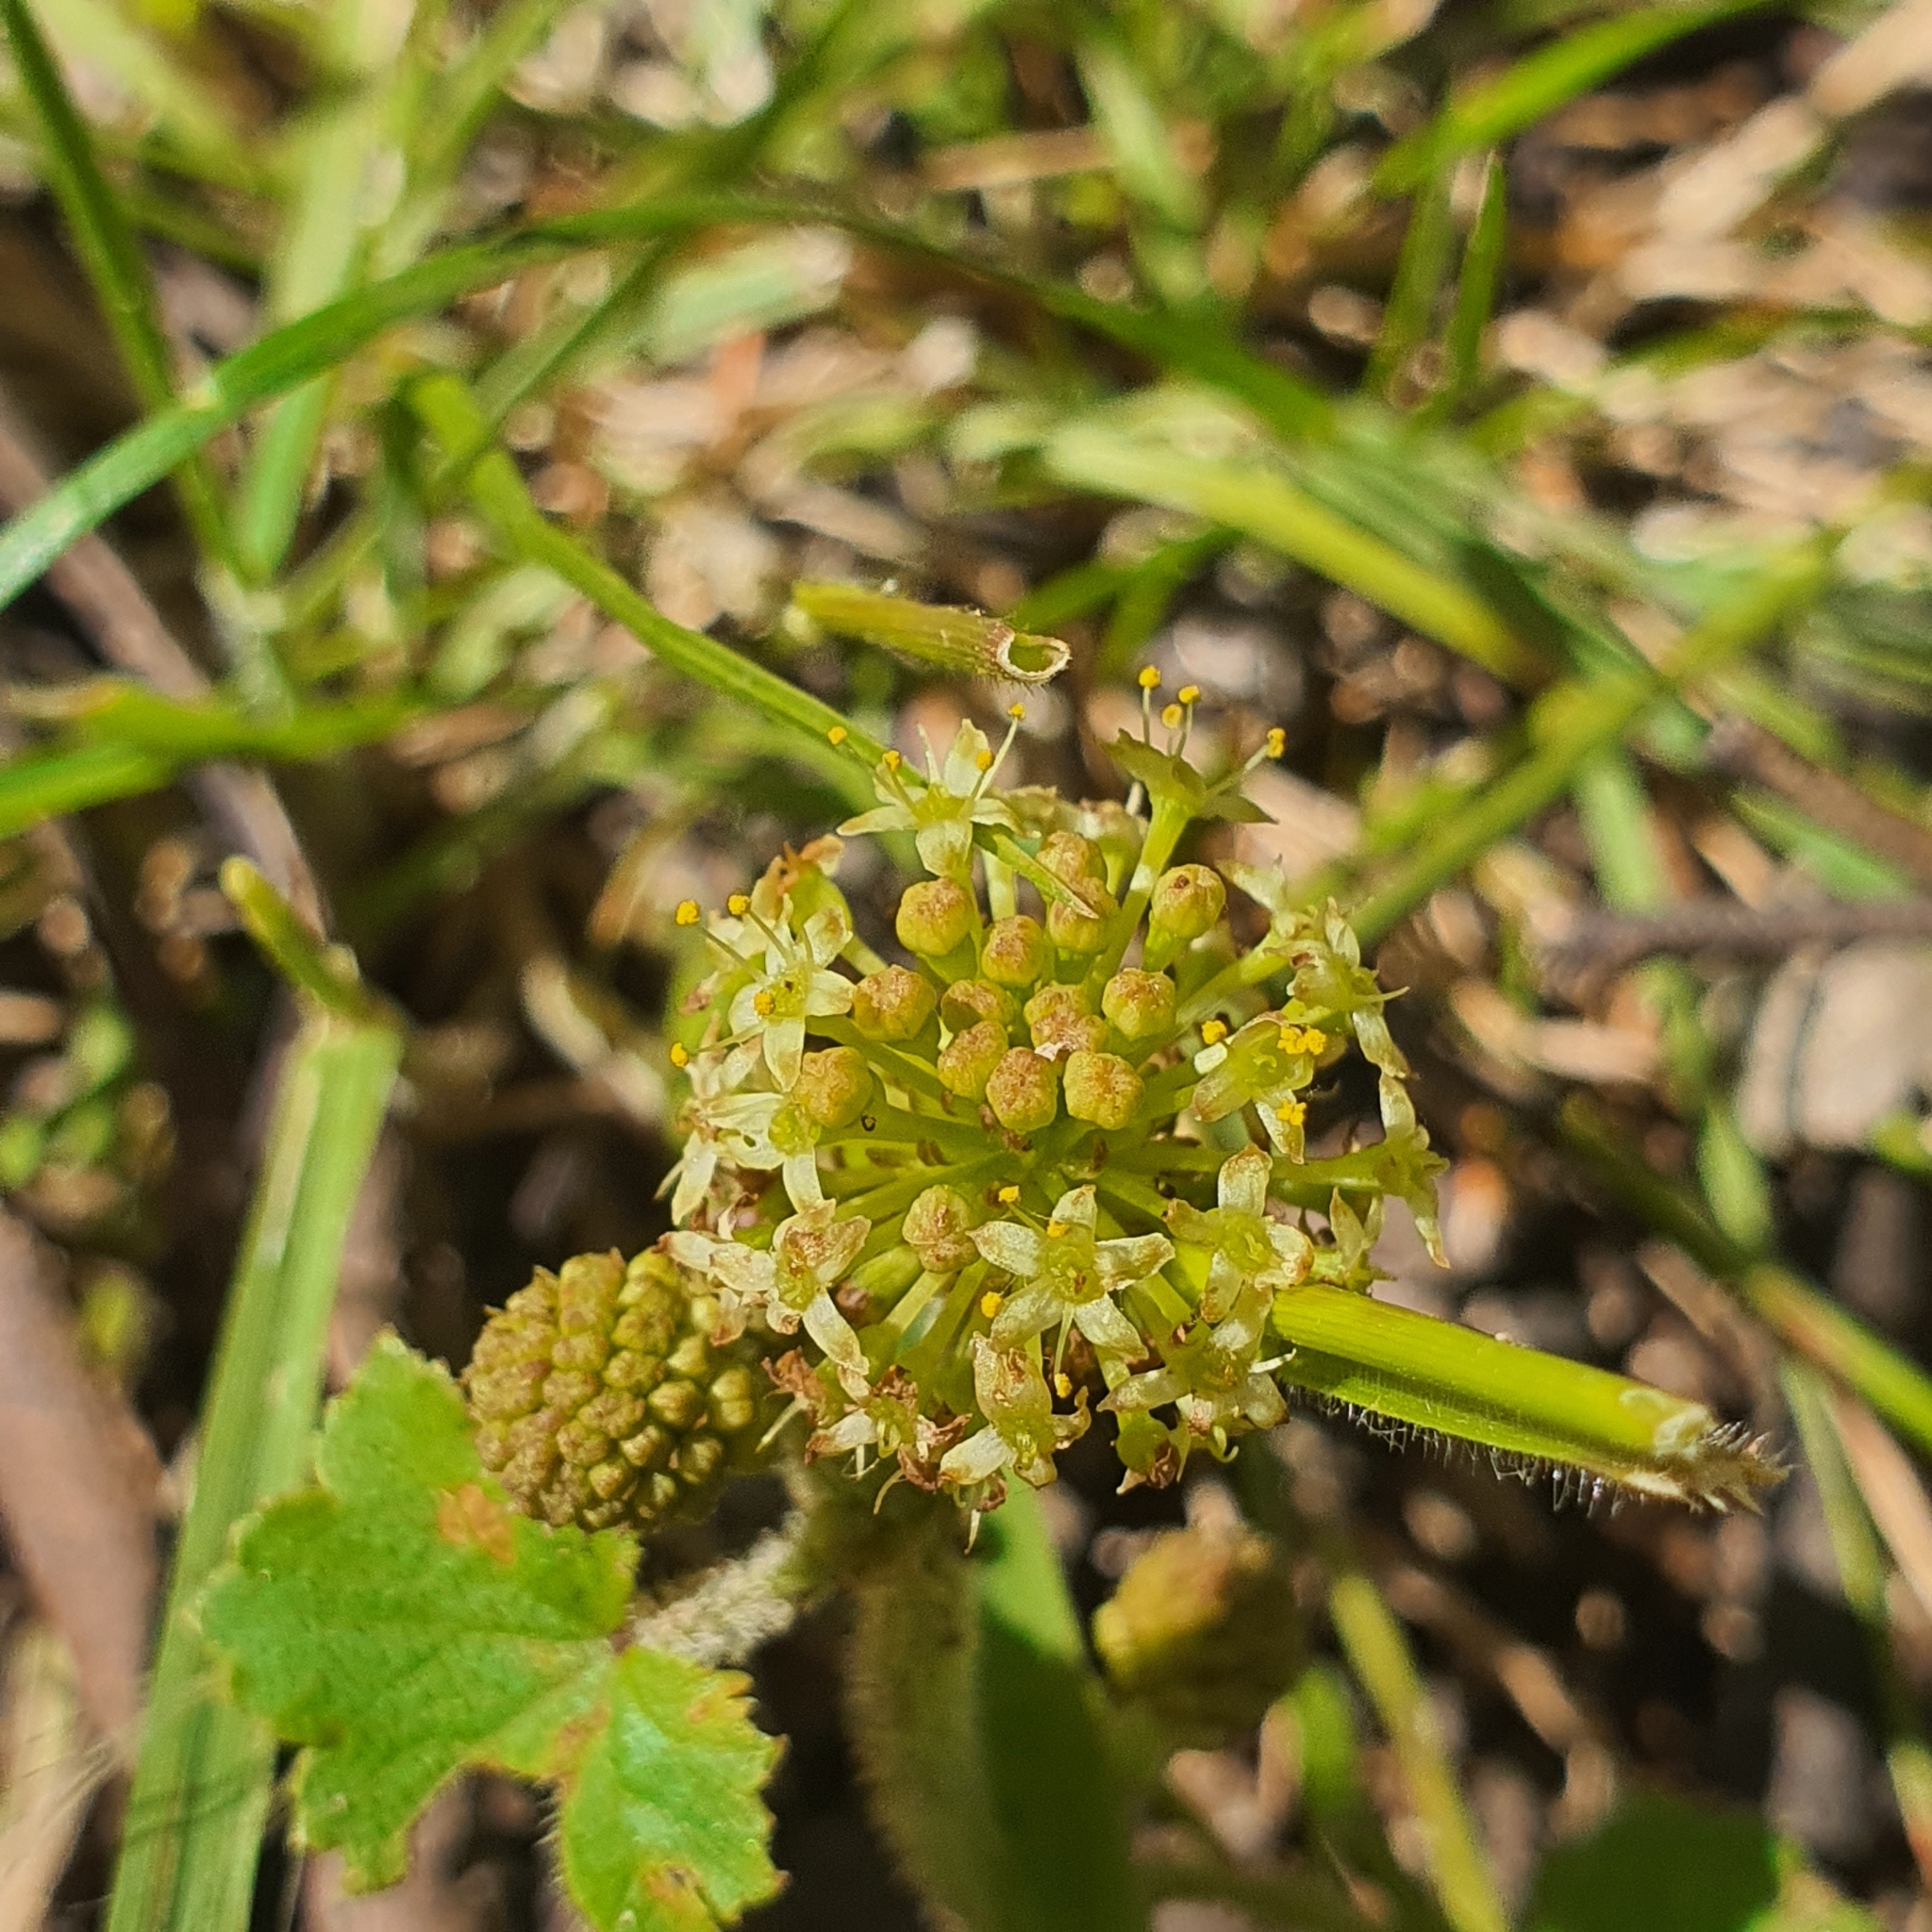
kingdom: Plantae
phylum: Tracheophyta
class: Magnoliopsida
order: Apiales
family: Araliaceae
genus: Hydrocotyle
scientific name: Hydrocotyle laxiflora
